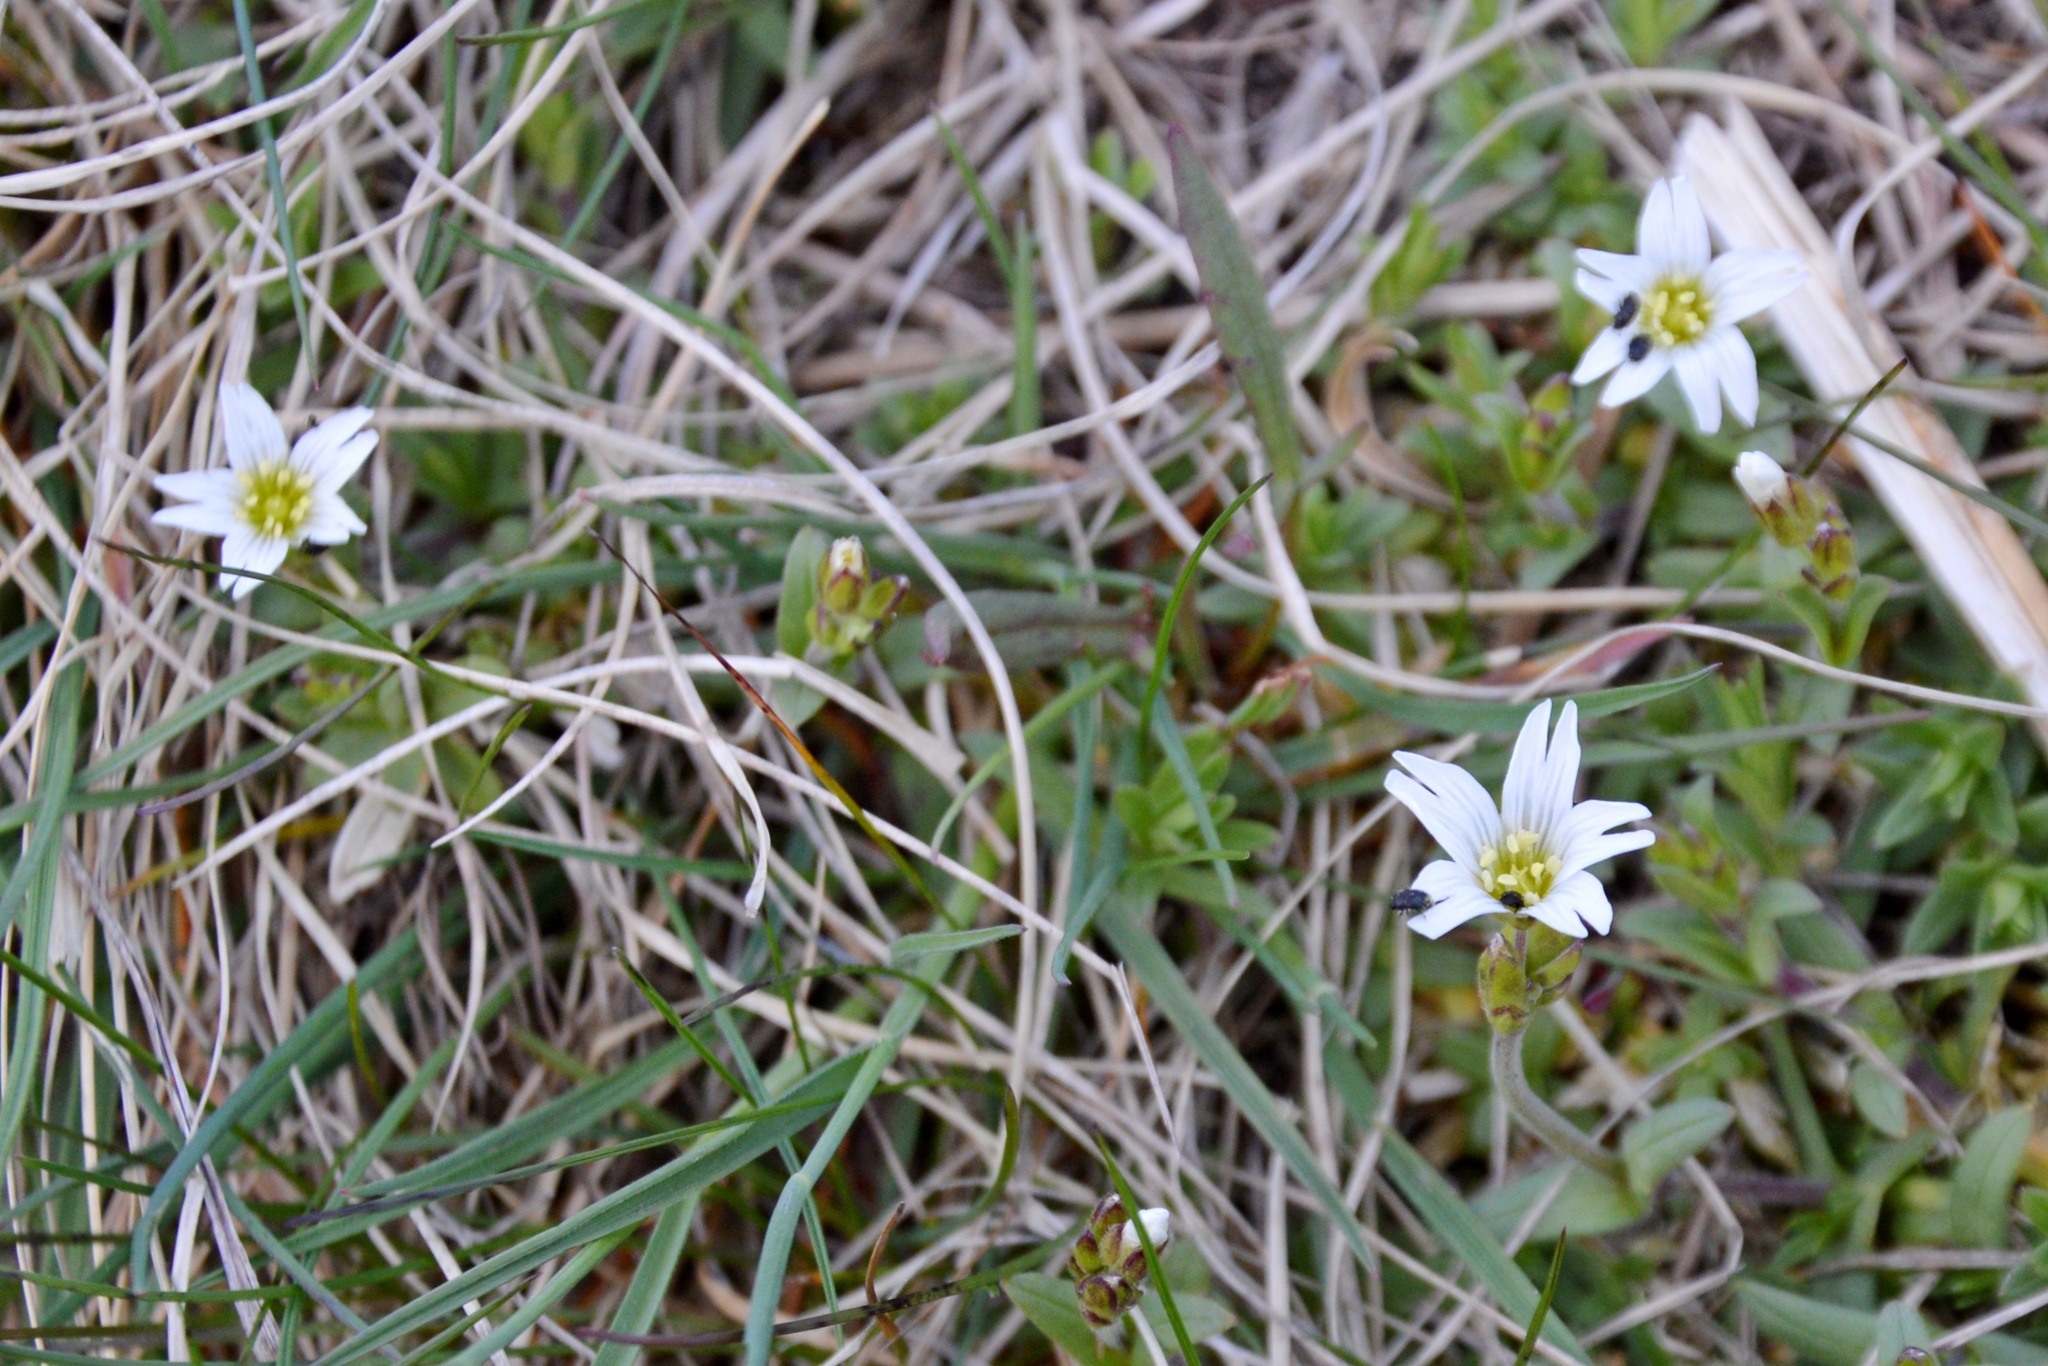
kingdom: Plantae
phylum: Tracheophyta
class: Magnoliopsida
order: Caryophyllales
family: Caryophyllaceae
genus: Cerastium
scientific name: Cerastium arvense
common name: Field mouse-ear
